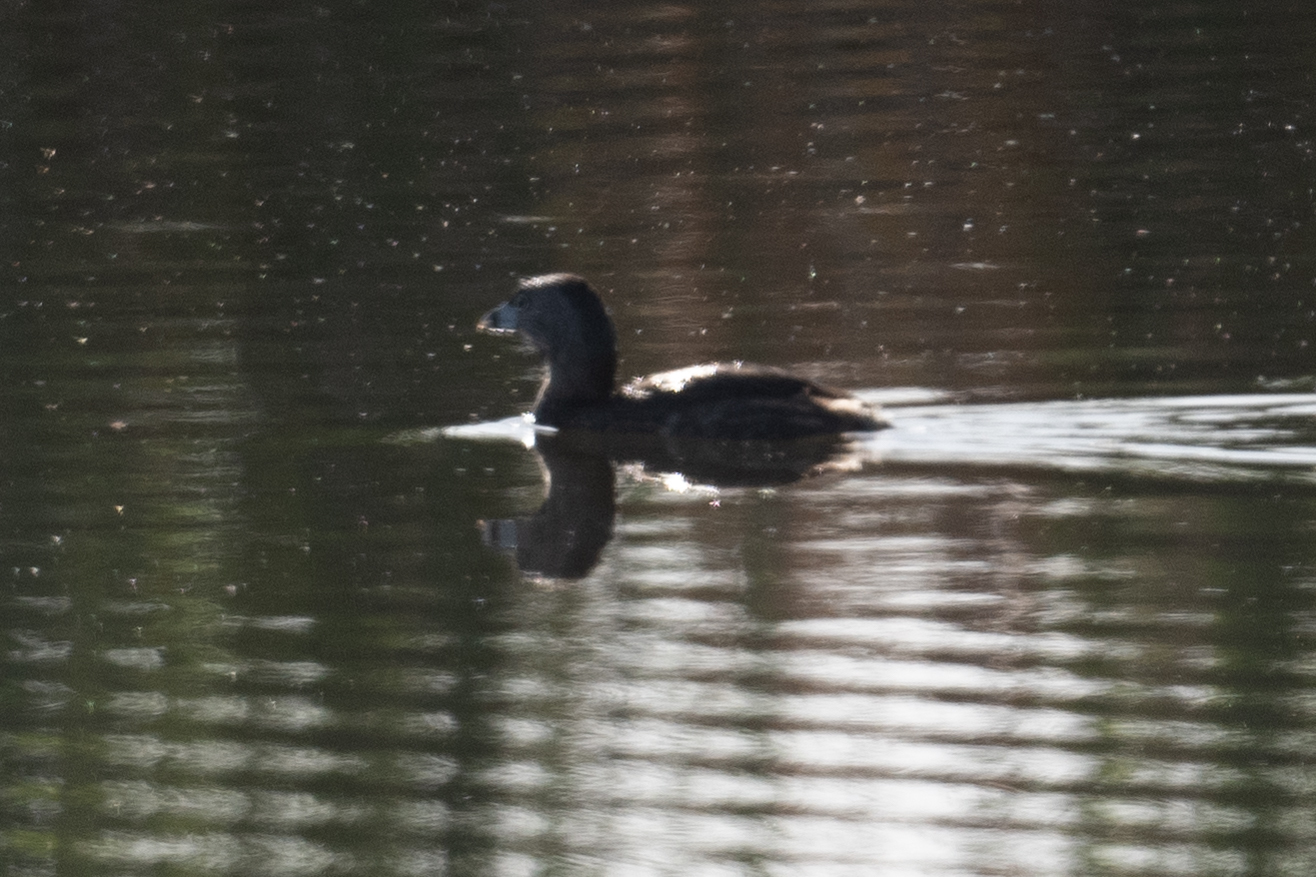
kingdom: Animalia
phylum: Chordata
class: Aves
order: Podicipediformes
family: Podicipedidae
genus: Podilymbus
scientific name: Podilymbus podiceps
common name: Pied-billed grebe
